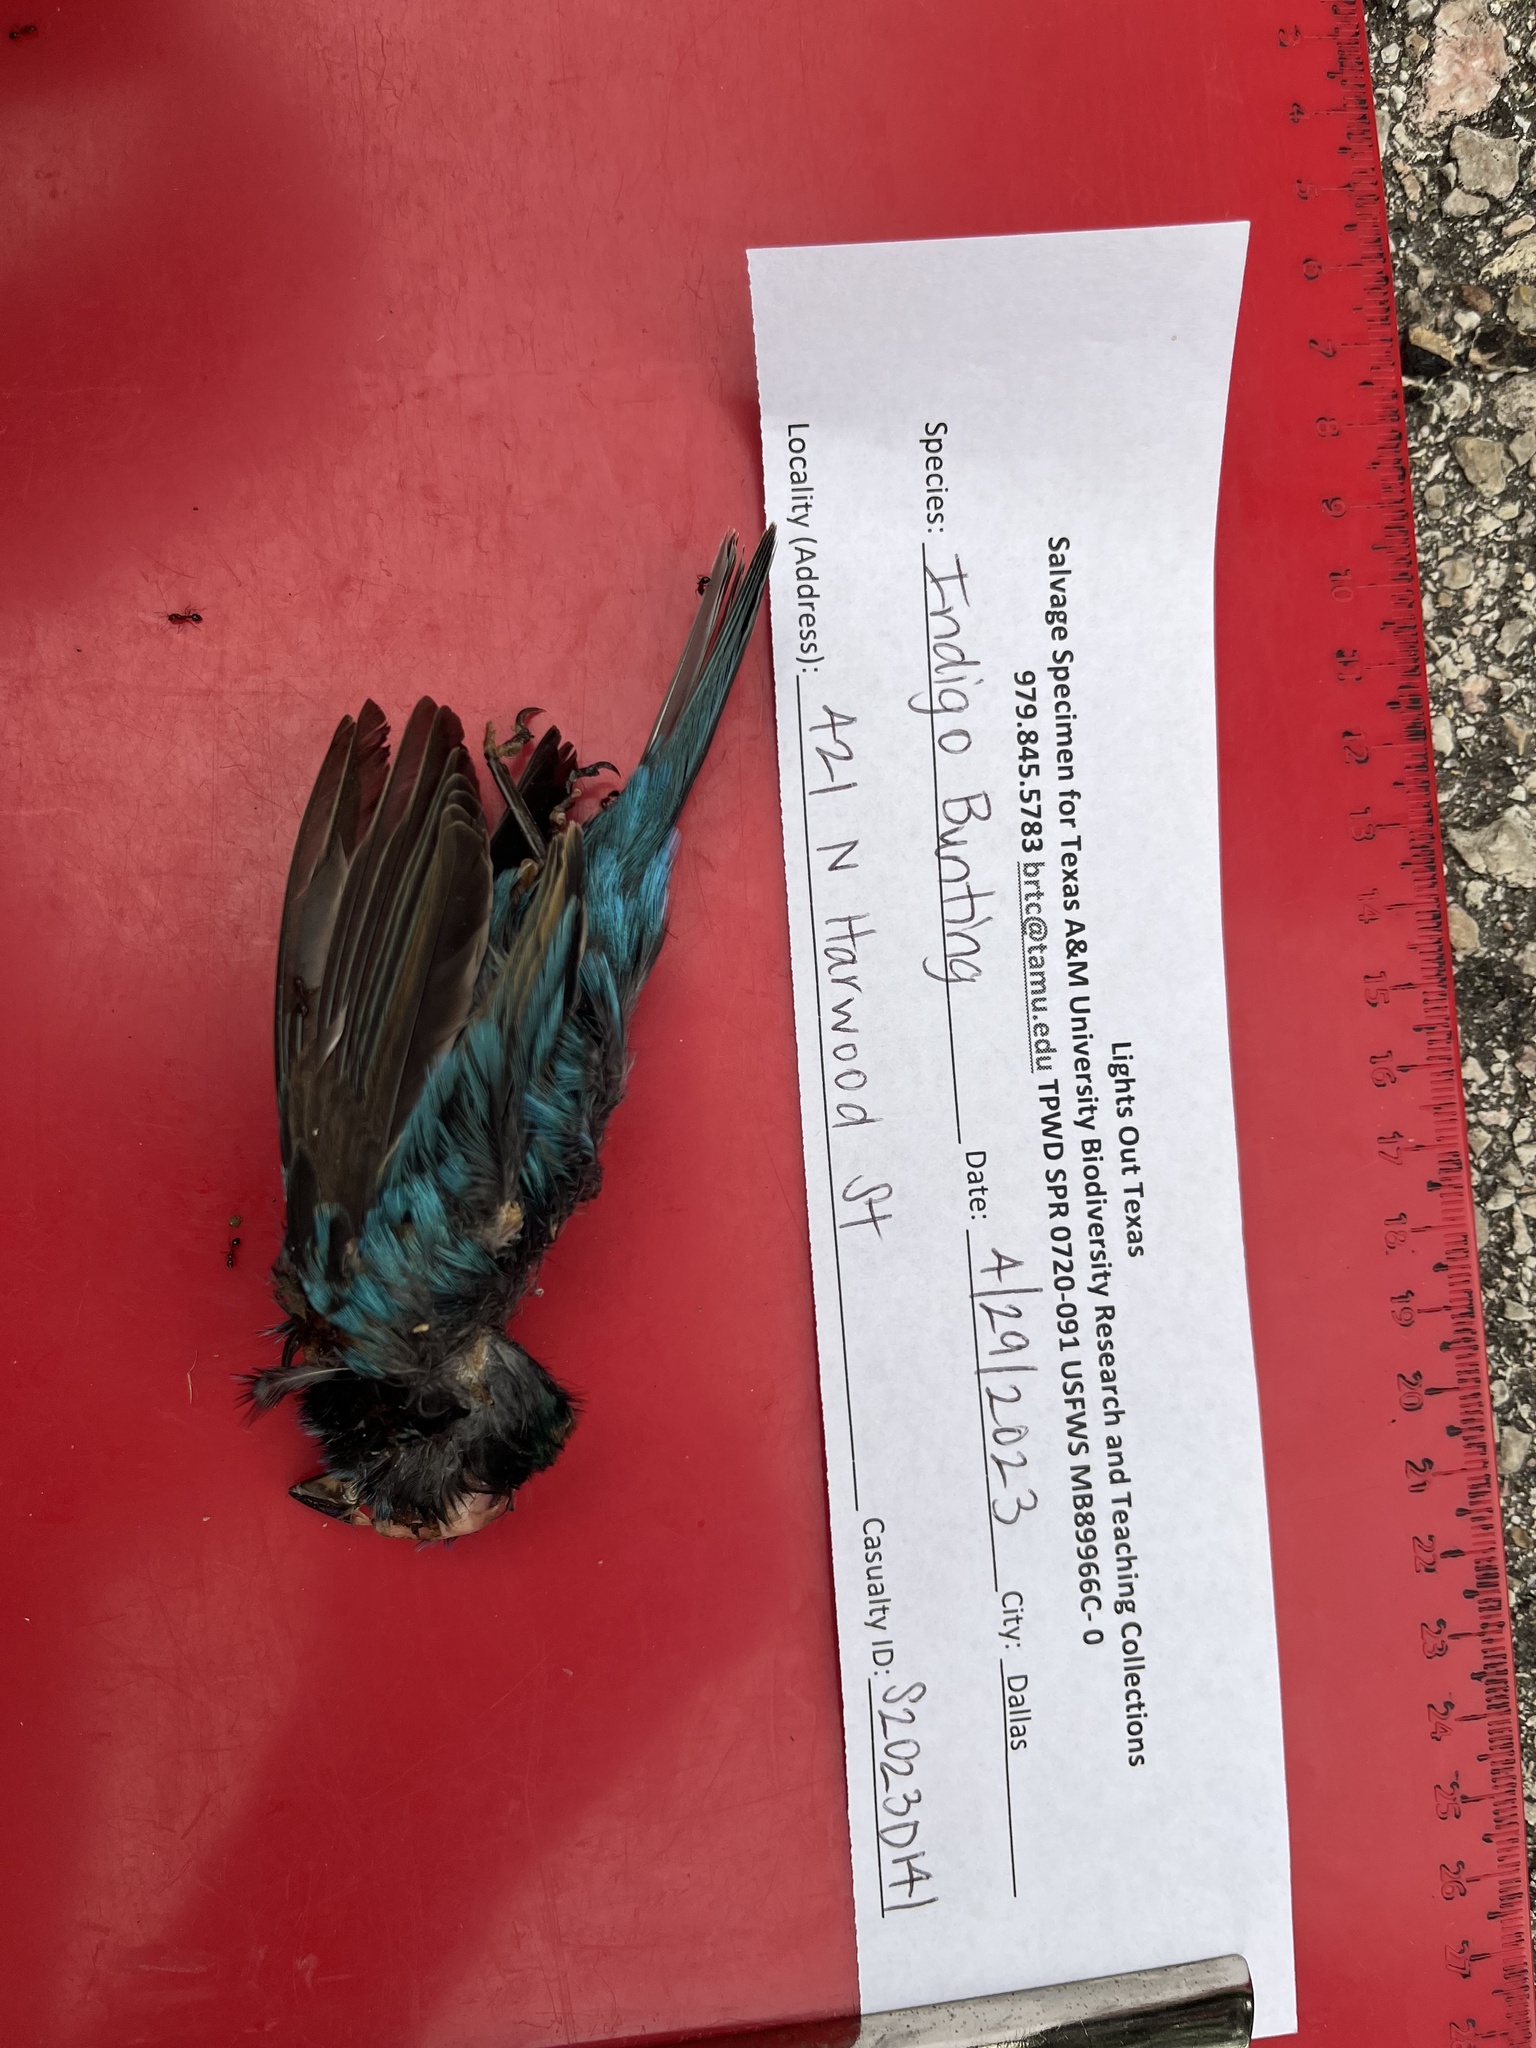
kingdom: Animalia
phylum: Chordata
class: Aves
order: Passeriformes
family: Cardinalidae
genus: Passerina
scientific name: Passerina cyanea
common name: Indigo bunting
